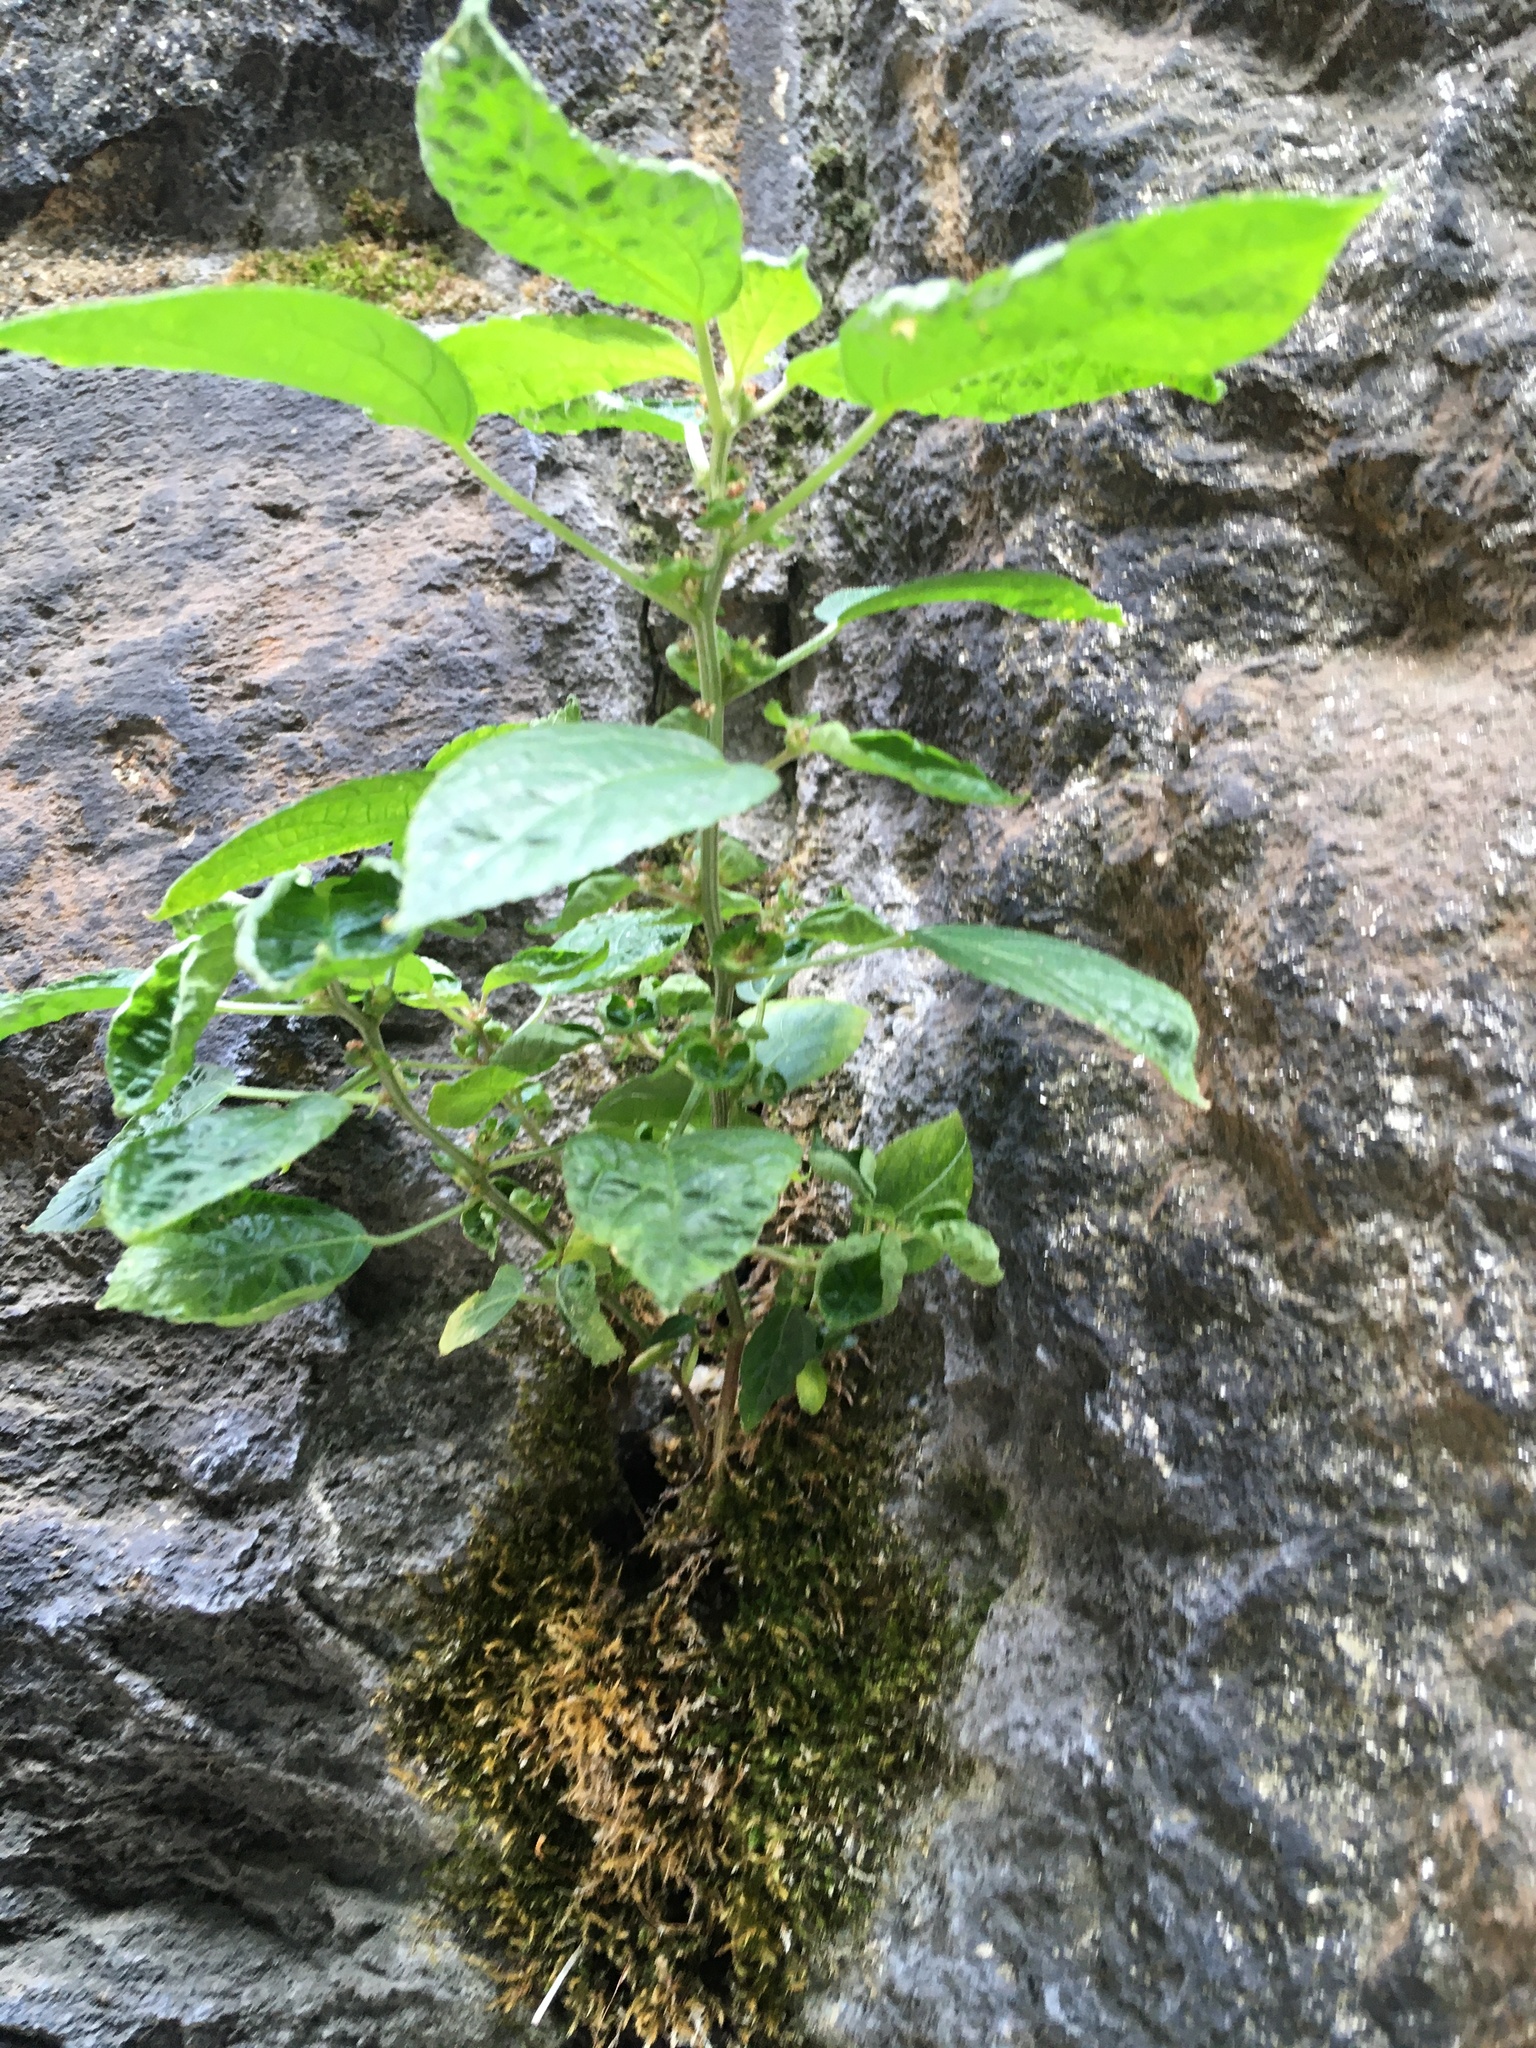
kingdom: Plantae
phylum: Tracheophyta
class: Magnoliopsida
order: Malpighiales
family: Euphorbiaceae
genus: Acalypha
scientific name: Acalypha australis
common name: Asian copperleaf
